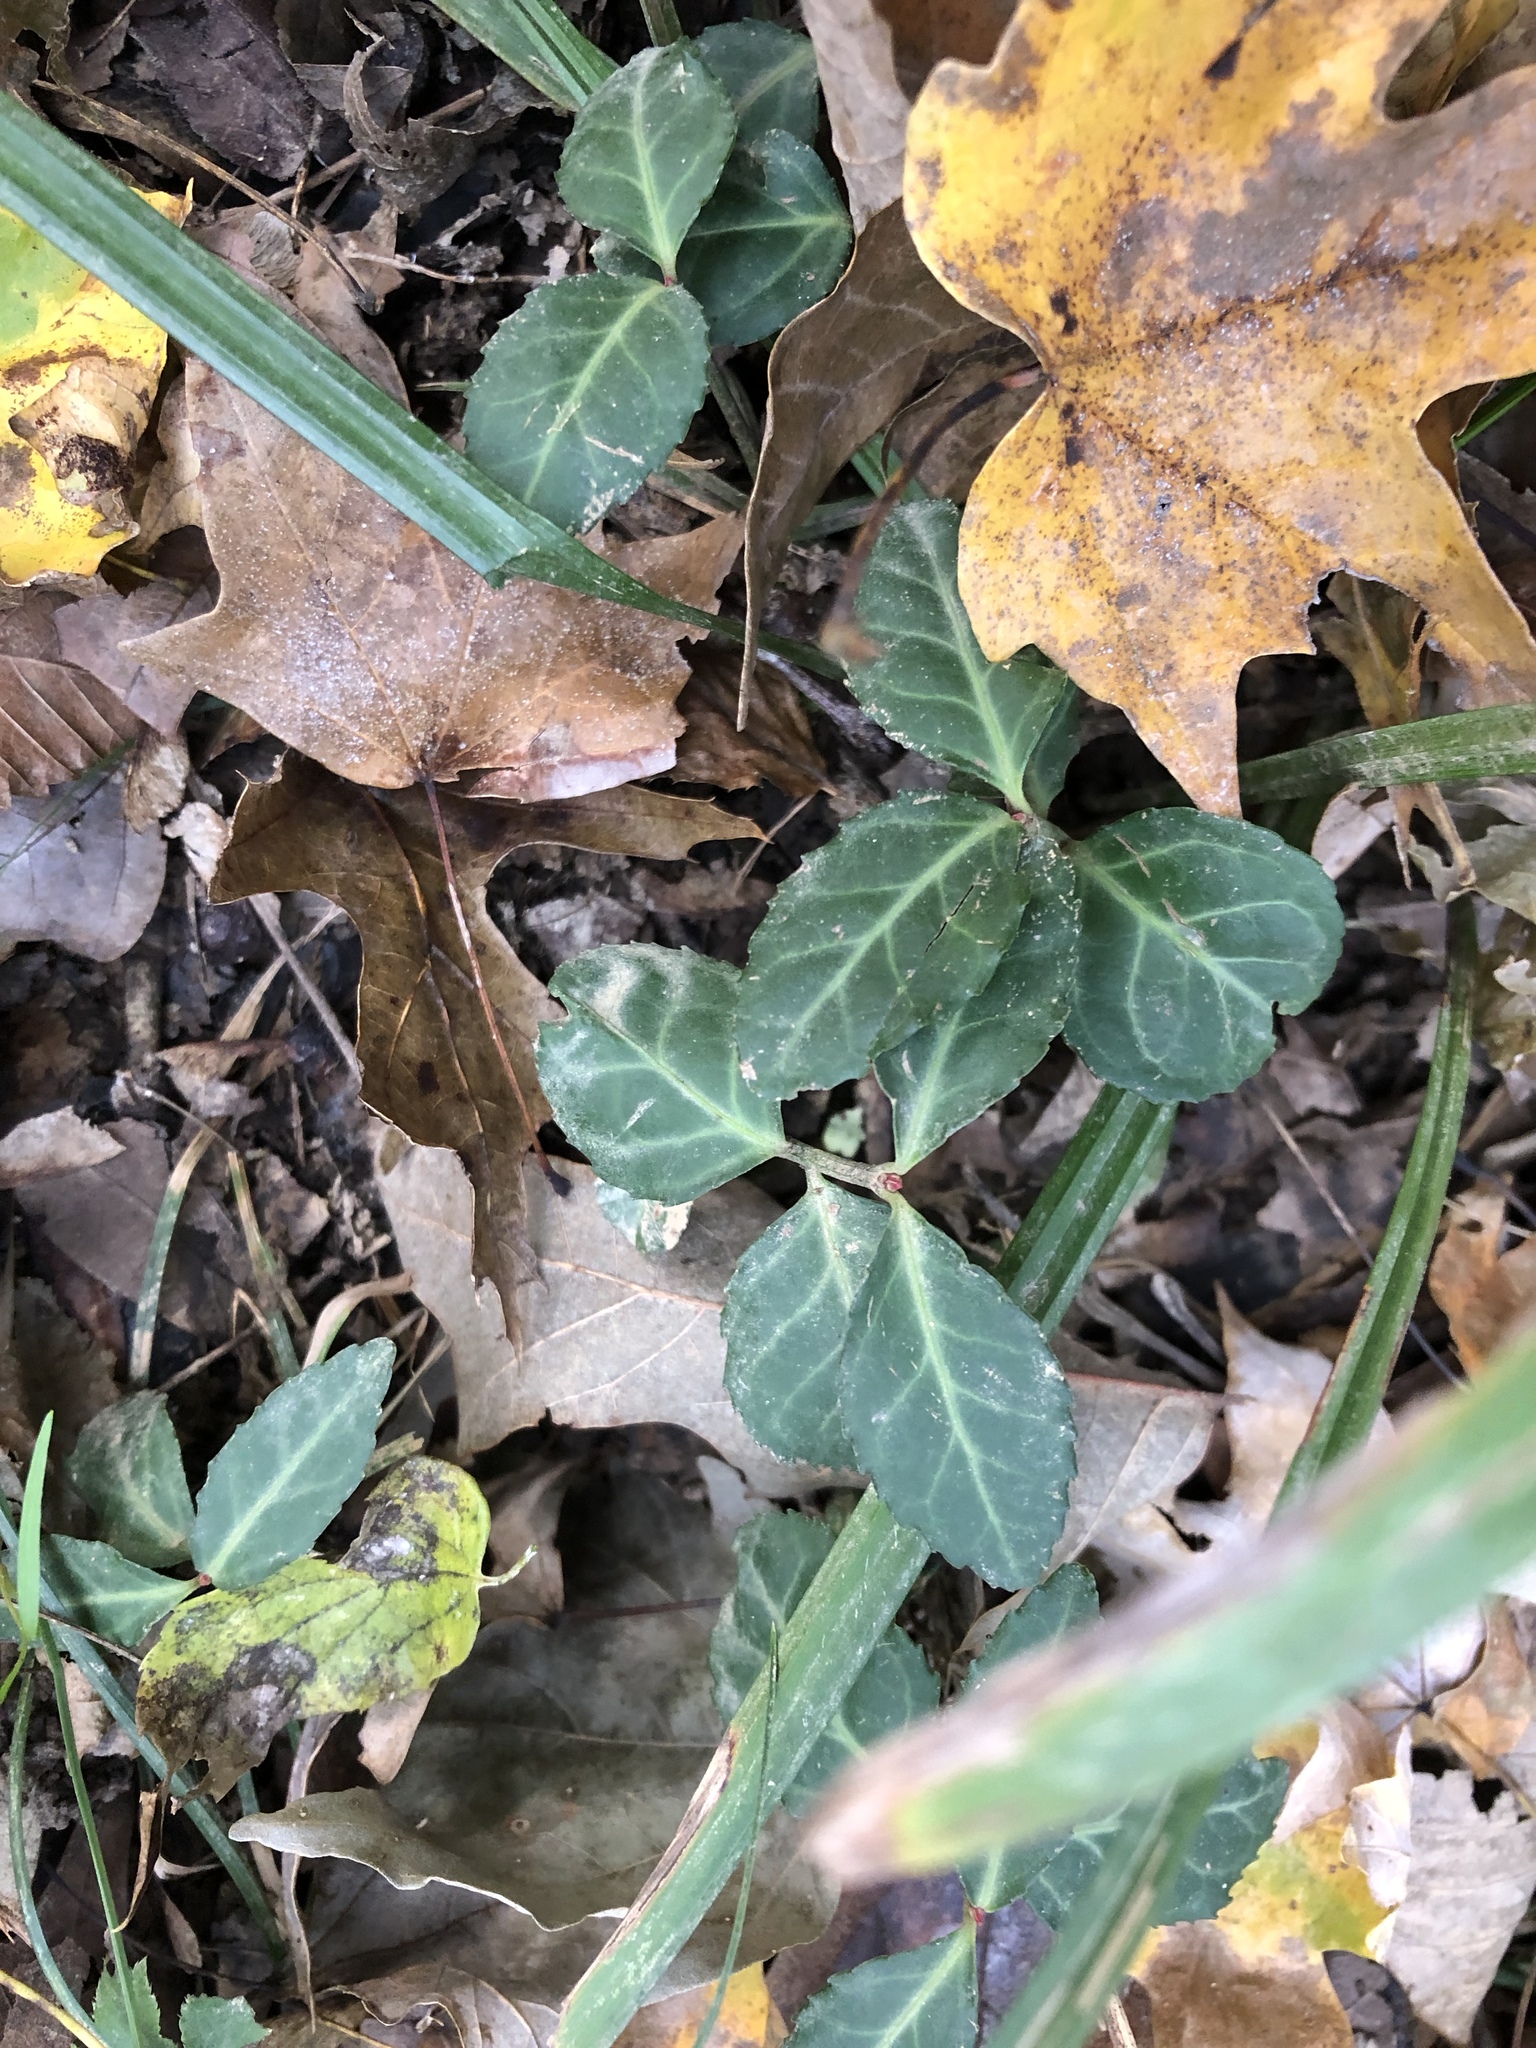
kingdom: Plantae
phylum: Tracheophyta
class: Magnoliopsida
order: Celastrales
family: Celastraceae
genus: Euonymus
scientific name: Euonymus fortunei
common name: Climbing euonymus
